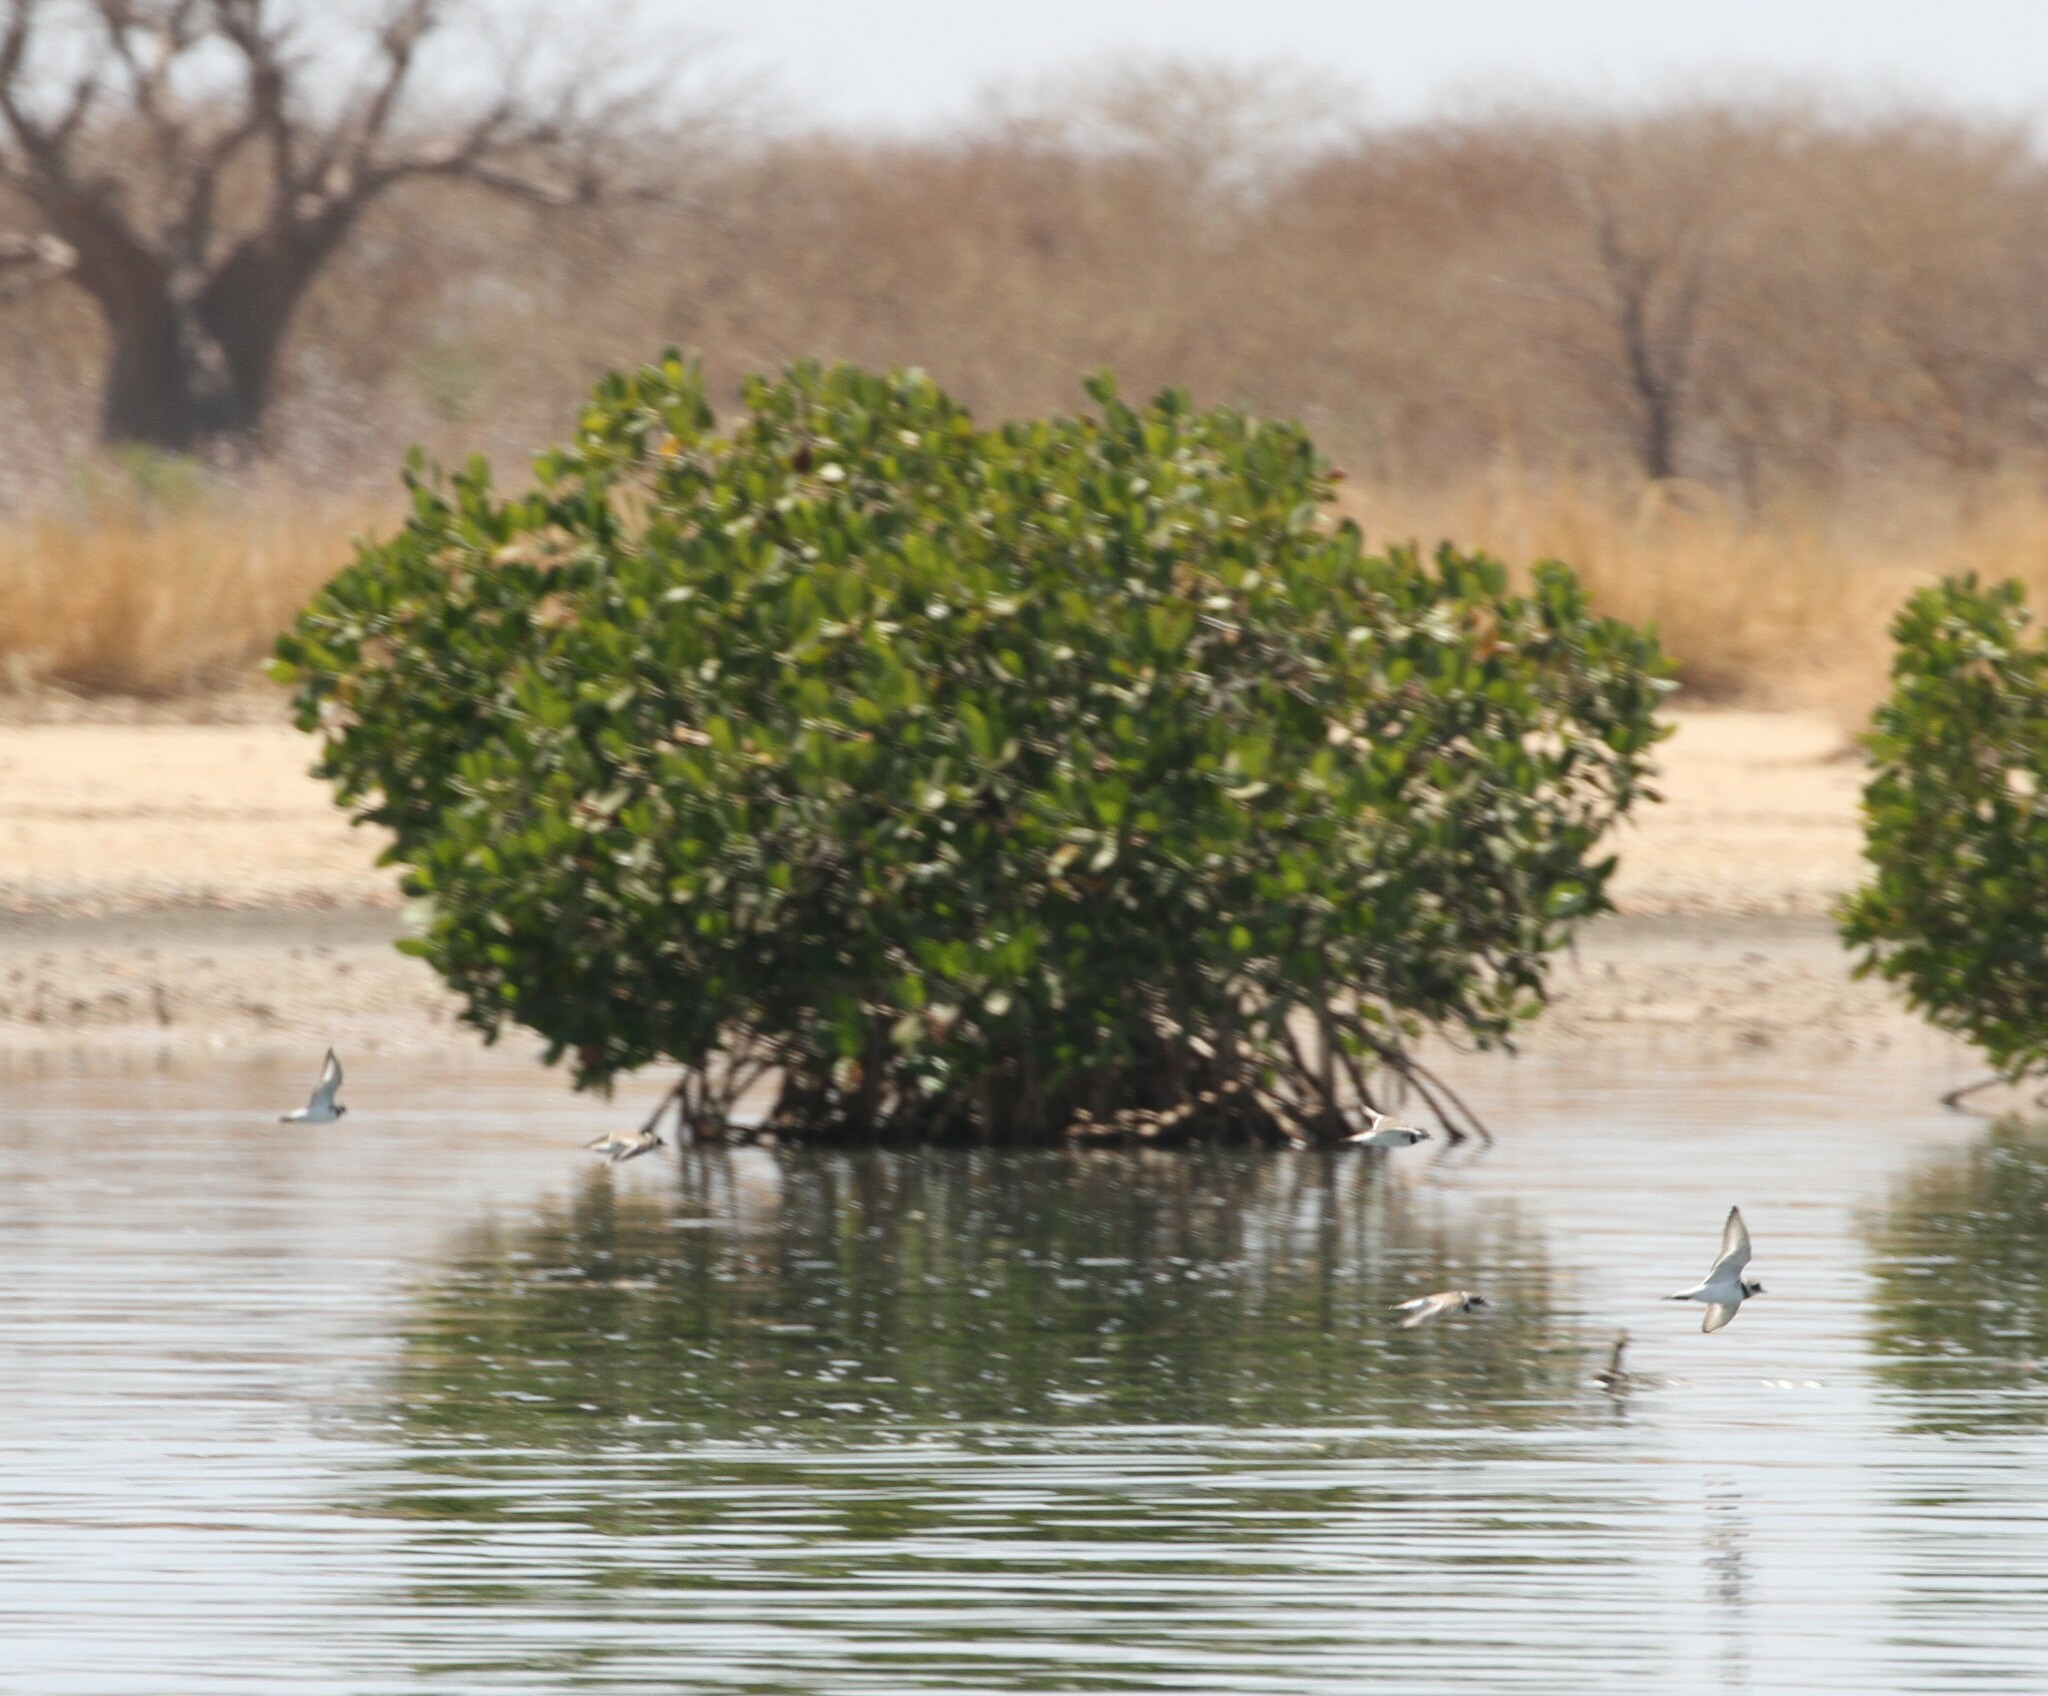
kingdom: Animalia
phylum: Chordata
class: Aves
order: Charadriiformes
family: Charadriidae
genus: Charadrius
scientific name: Charadrius hiaticula
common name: Common ringed plover
